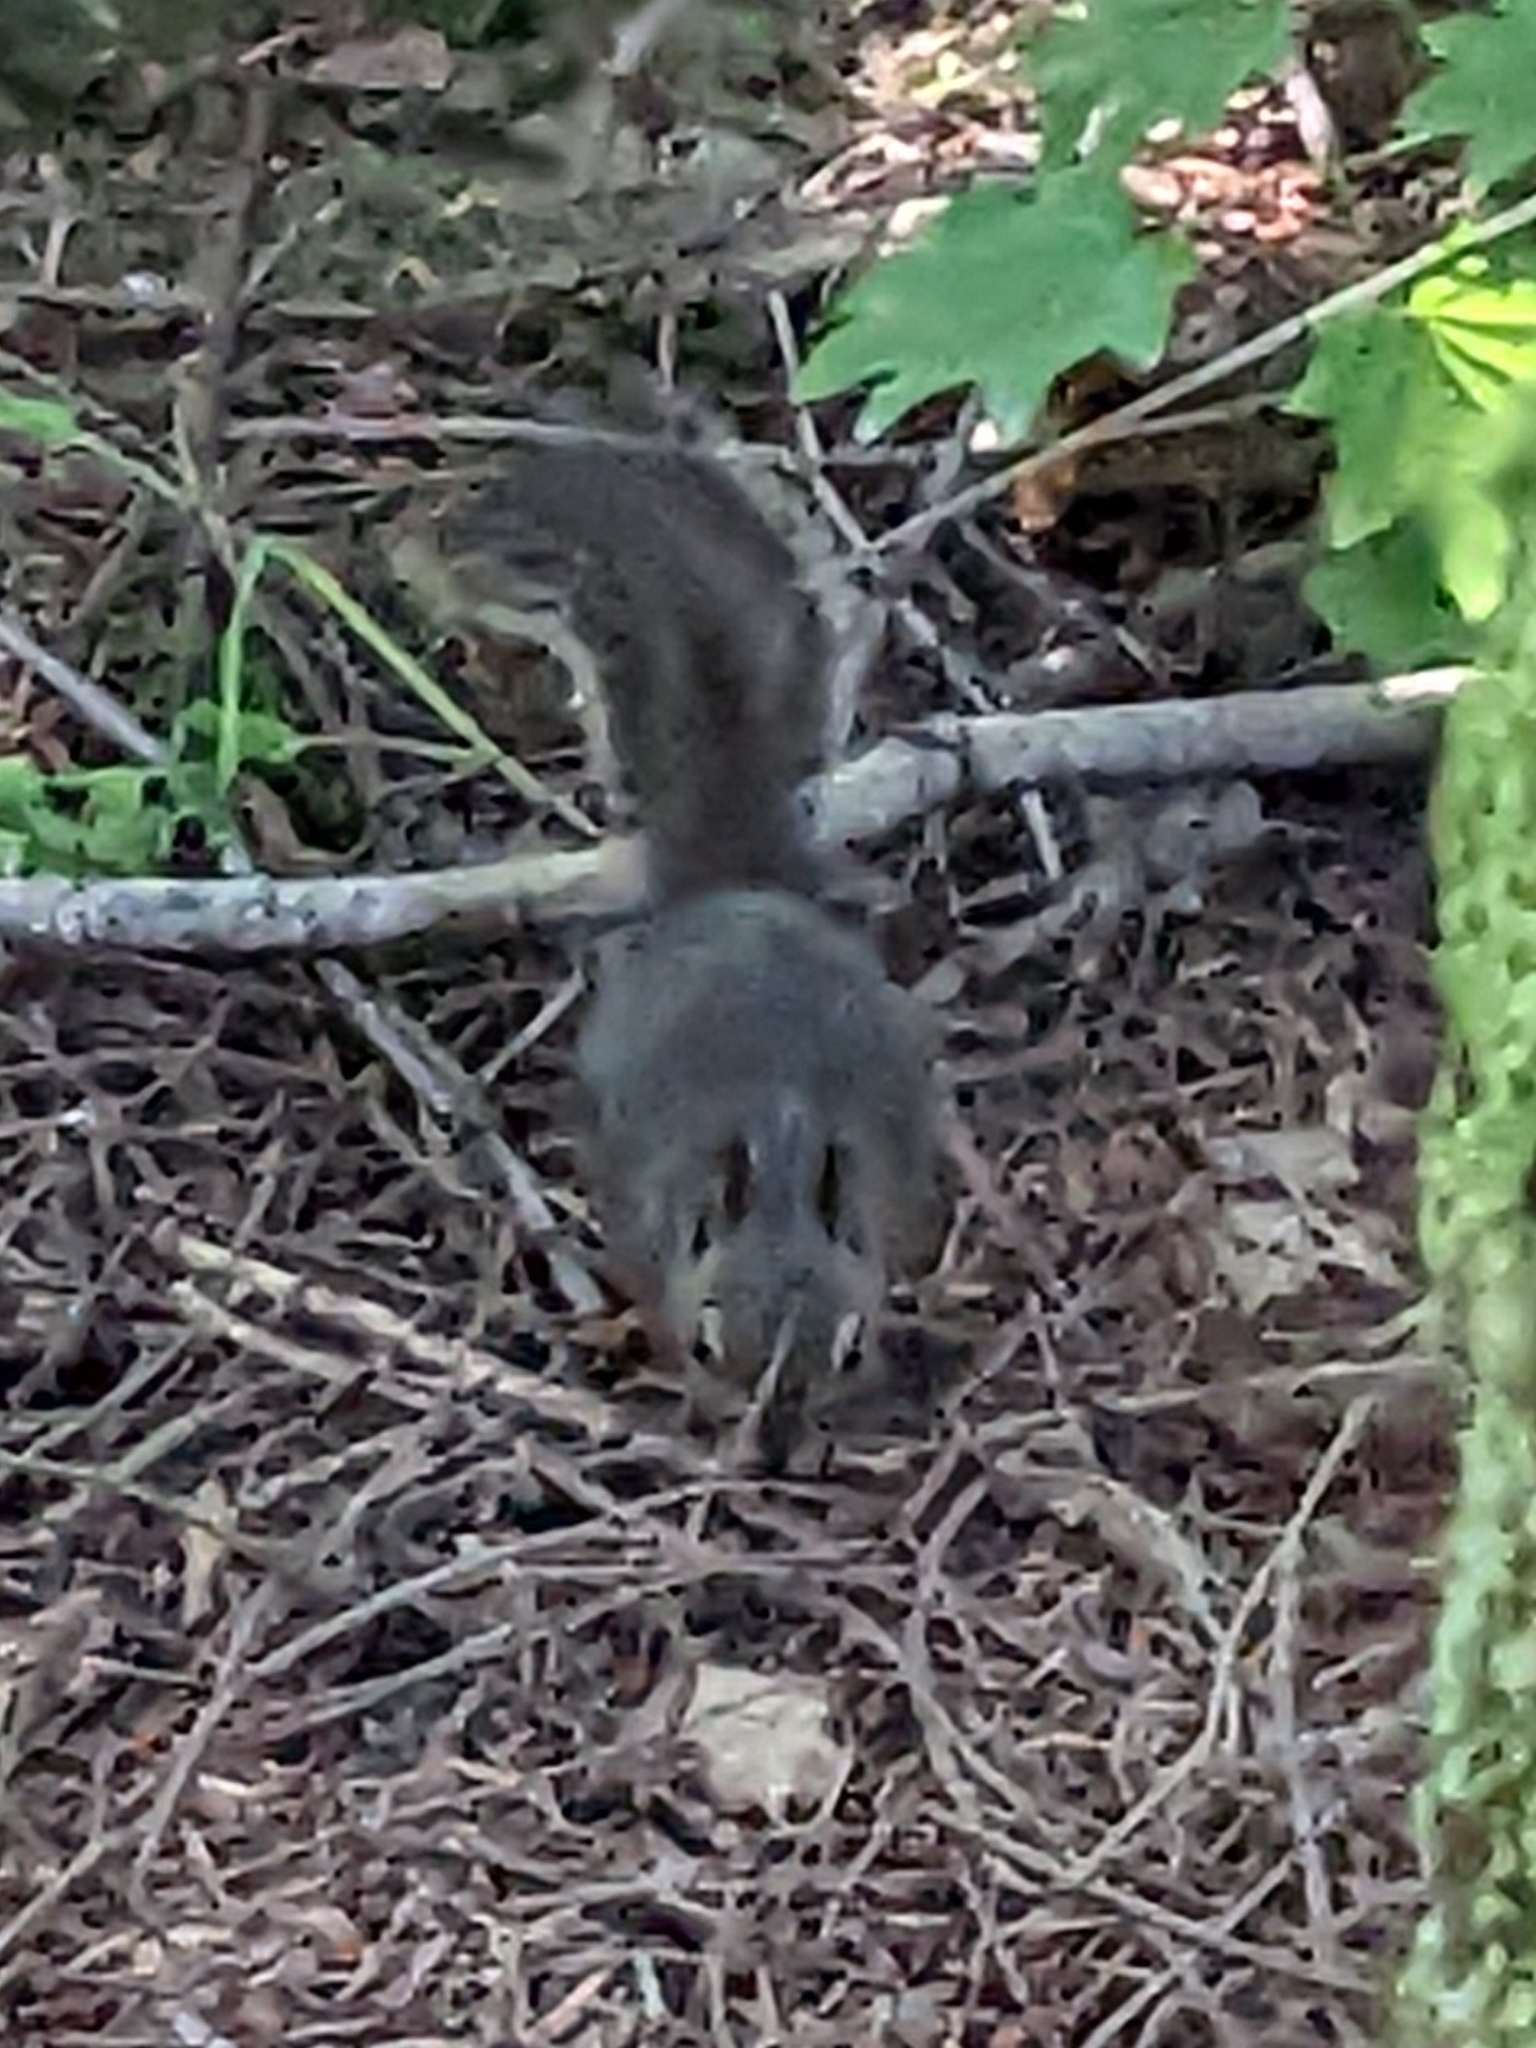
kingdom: Animalia
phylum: Chordata
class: Mammalia
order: Rodentia
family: Sciuridae
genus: Tamiasciurus
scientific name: Tamiasciurus douglasii
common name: Douglas's squirrel
